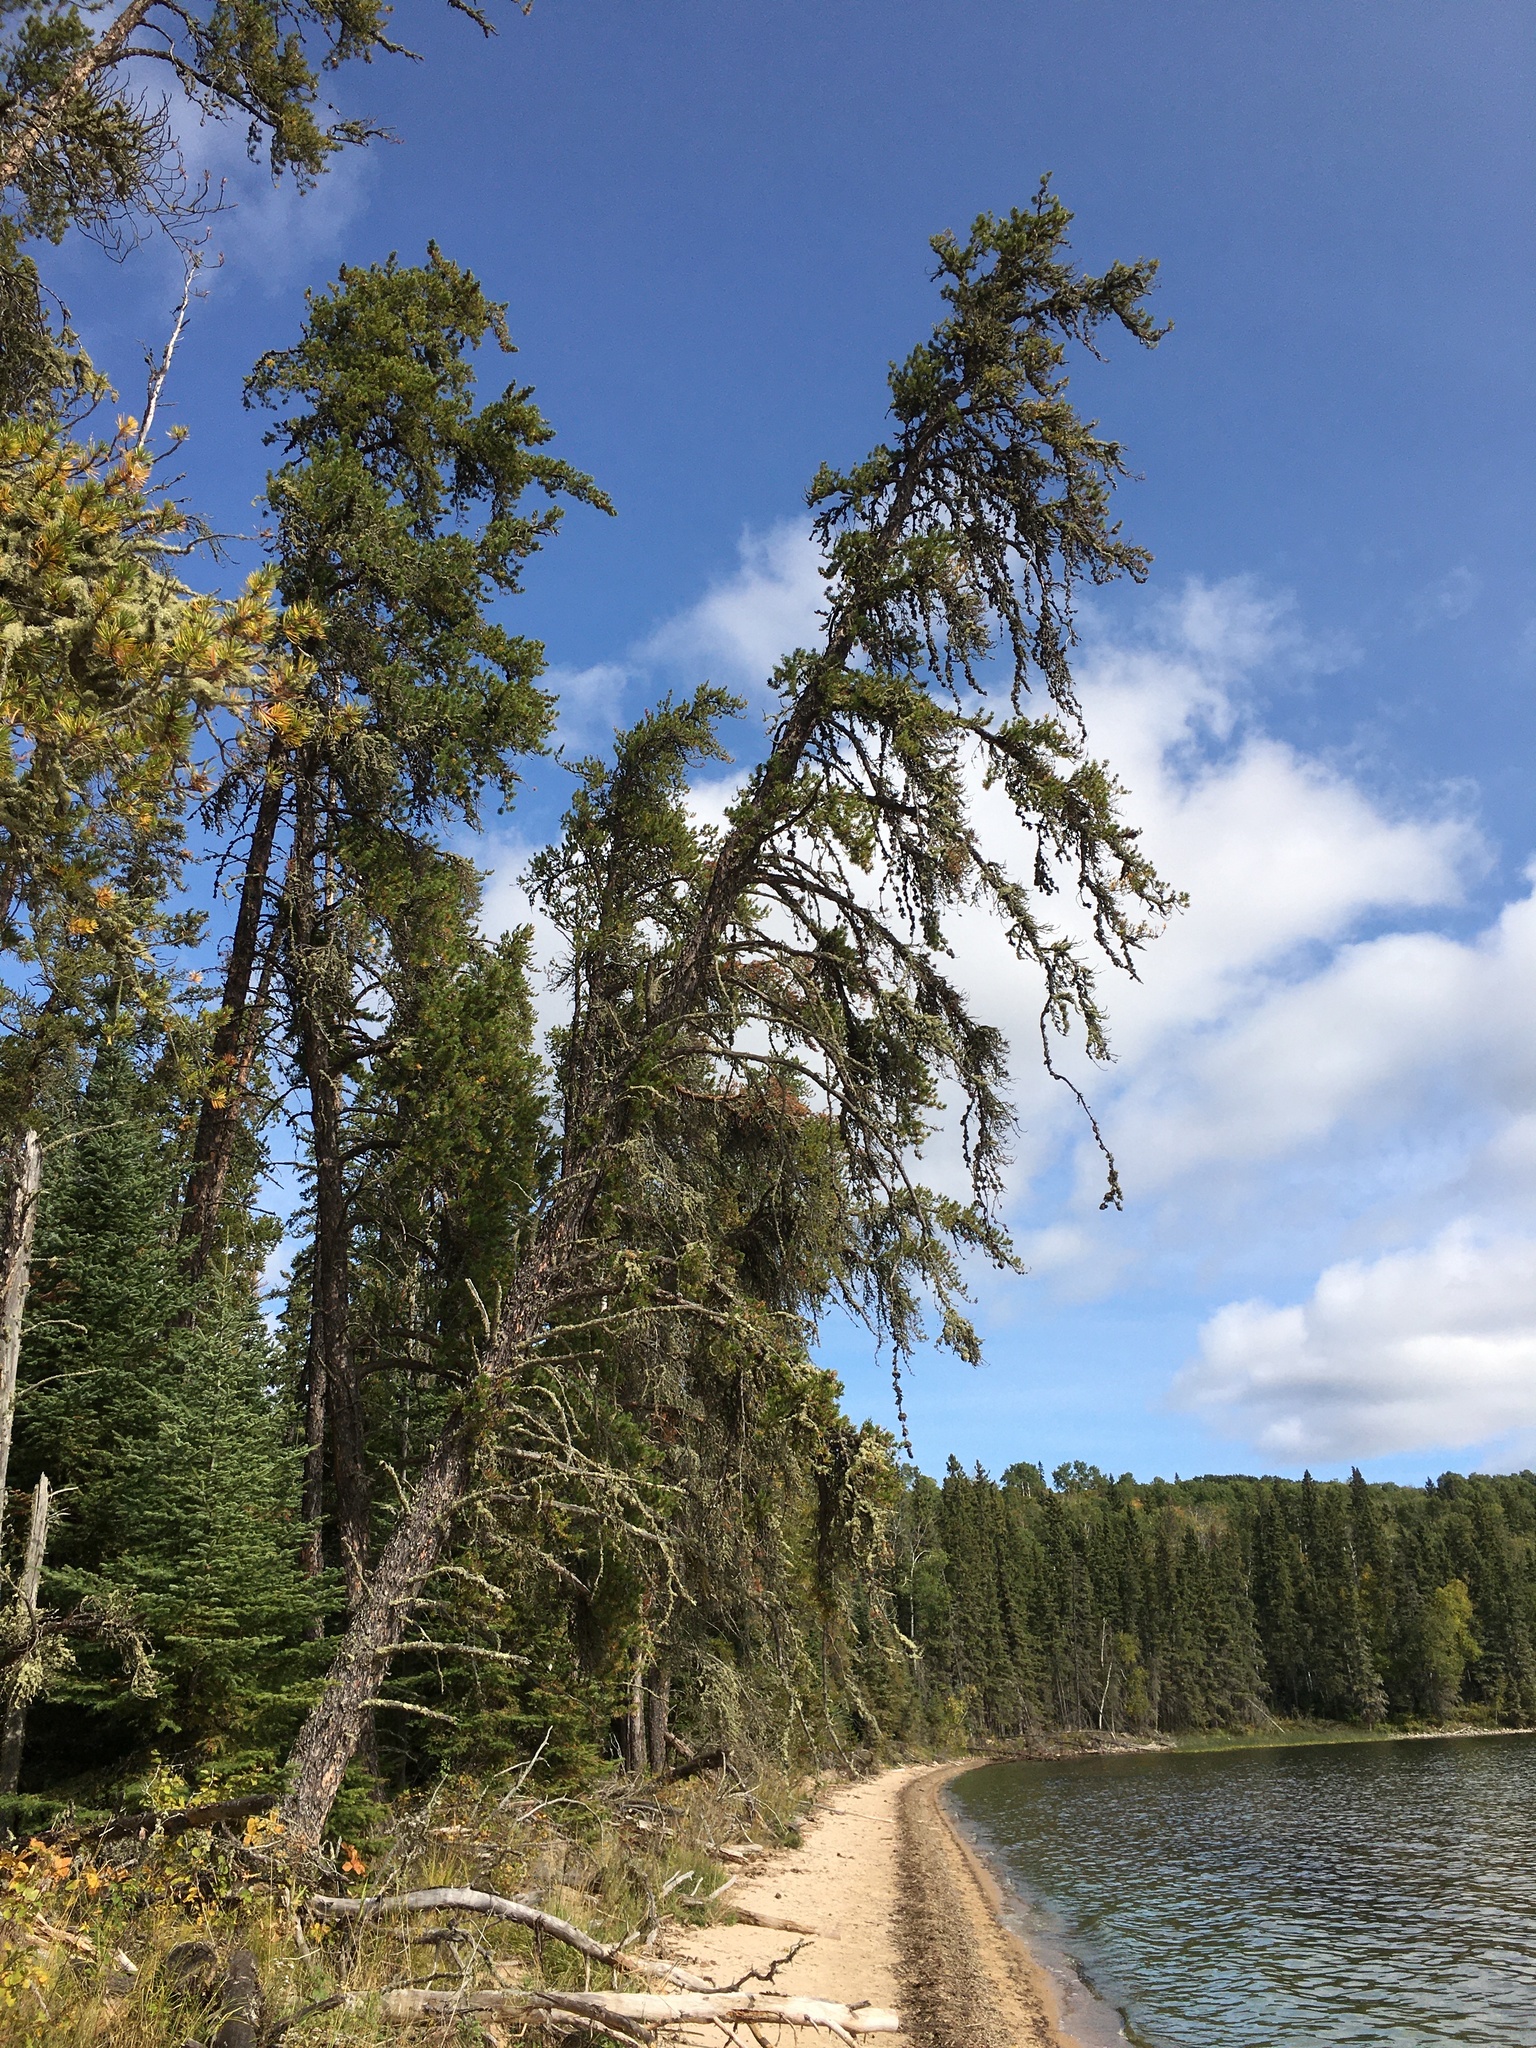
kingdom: Plantae
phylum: Tracheophyta
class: Pinopsida
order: Pinales
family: Pinaceae
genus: Pinus
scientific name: Pinus banksiana
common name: Jack pine
